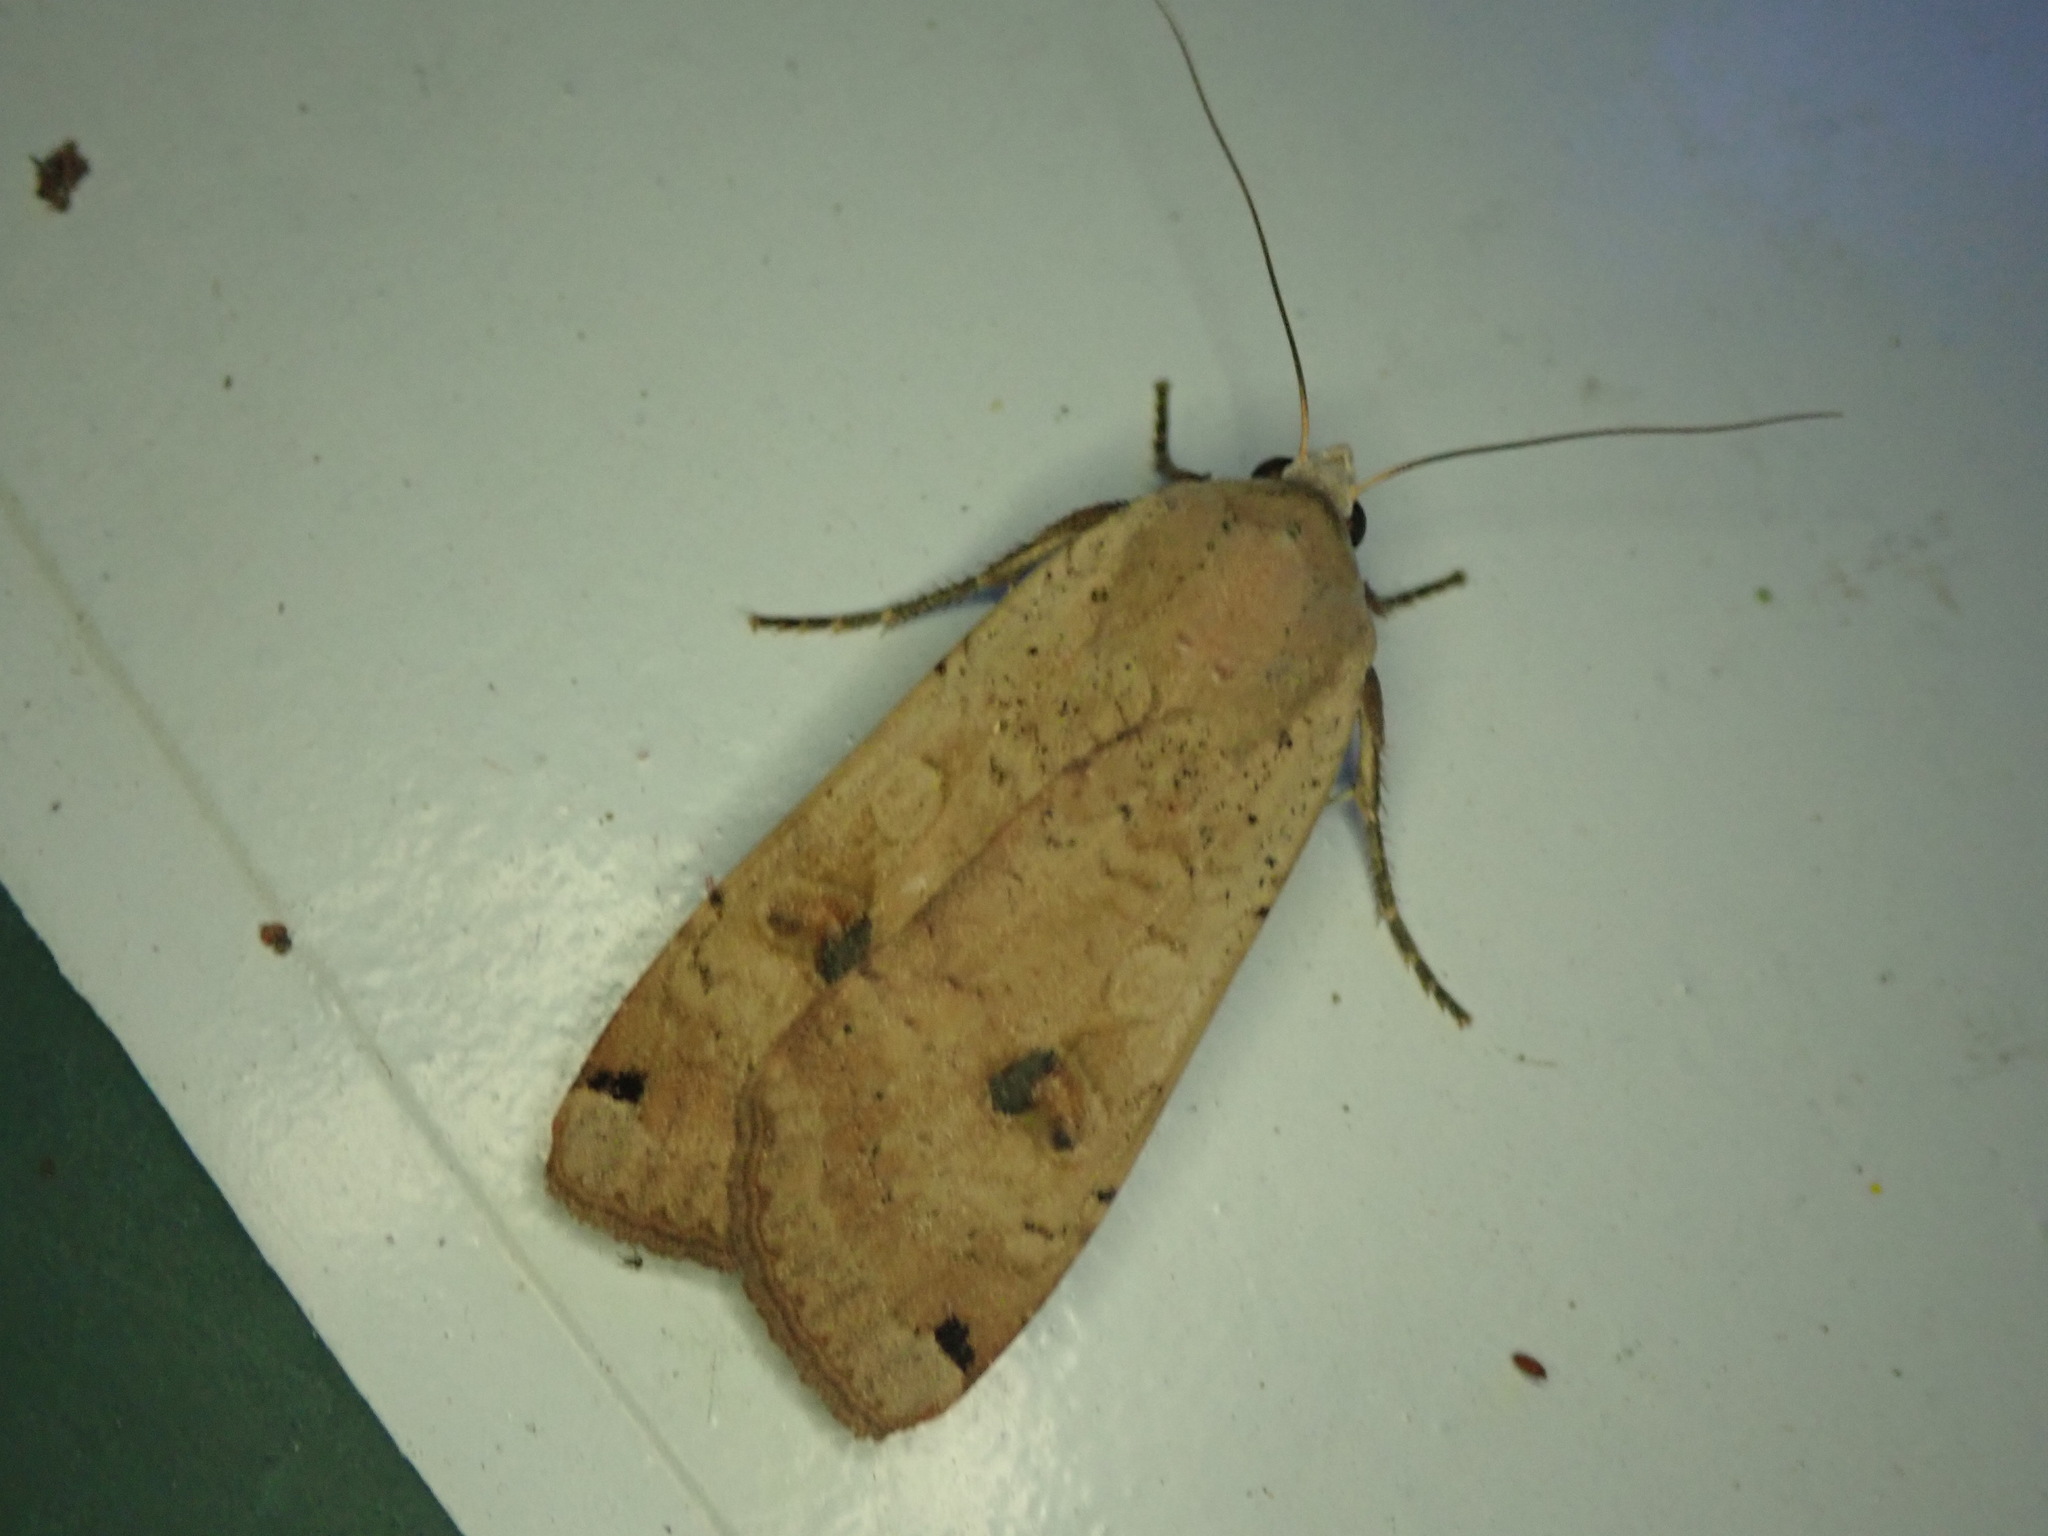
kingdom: Animalia
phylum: Arthropoda
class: Insecta
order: Lepidoptera
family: Noctuidae
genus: Noctua
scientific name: Noctua pronuba
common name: Large yellow underwing
